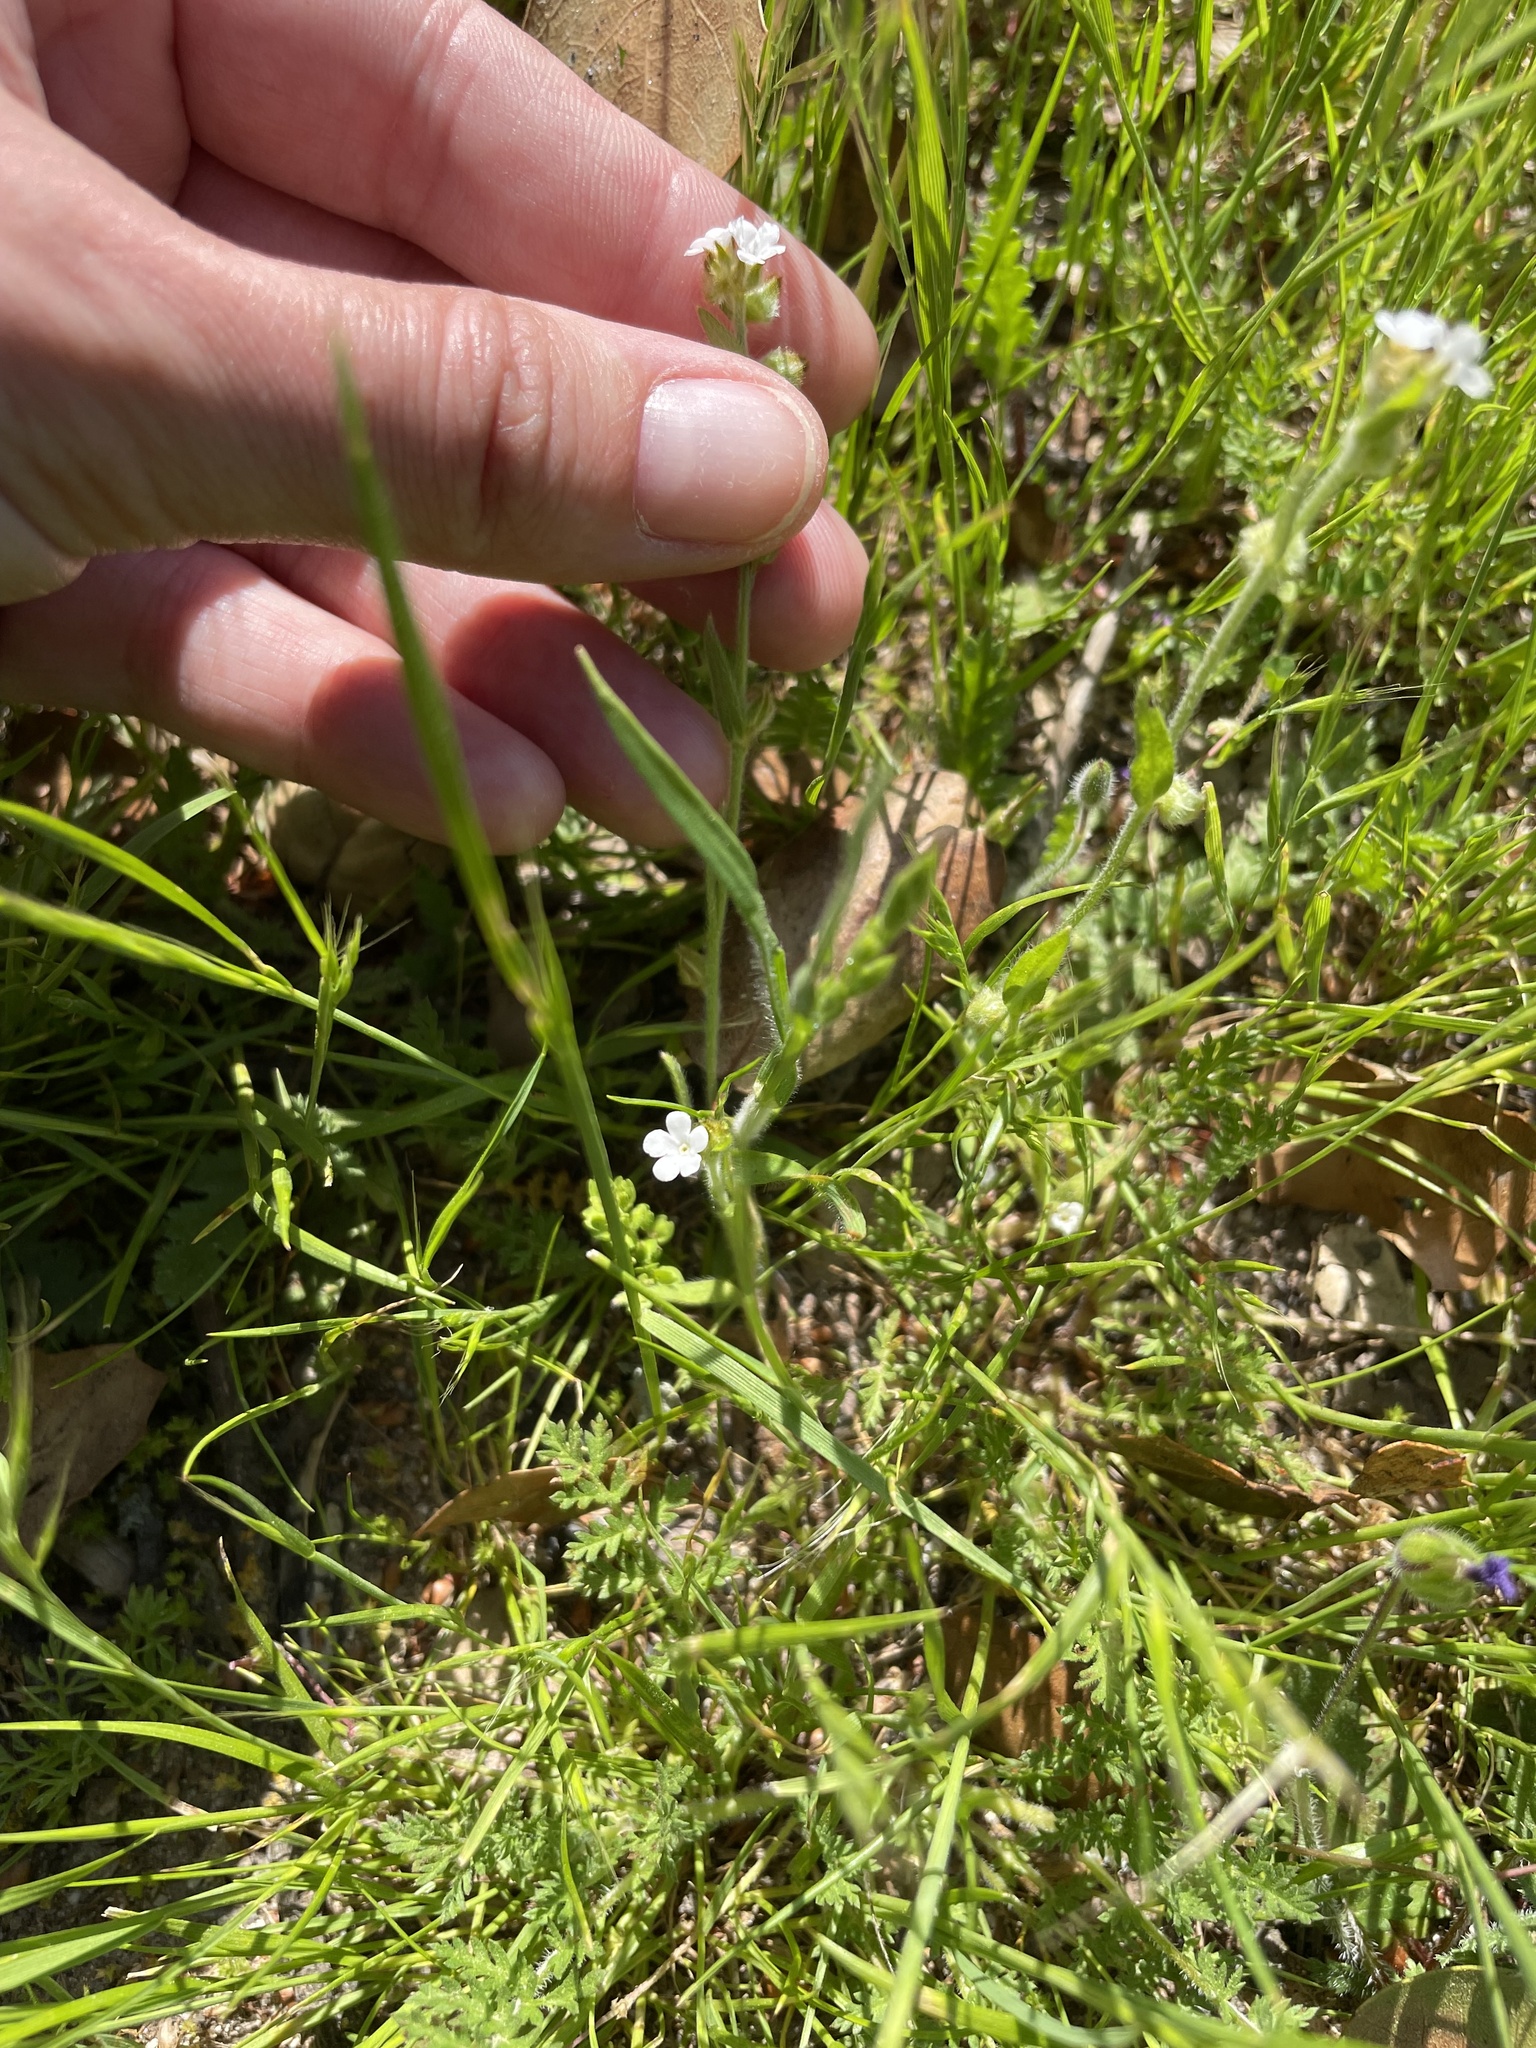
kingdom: Plantae
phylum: Tracheophyta
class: Magnoliopsida
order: Boraginales
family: Boraginaceae
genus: Plagiobothrys
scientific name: Plagiobothrys nothofulvus
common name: Popcorn-flower
